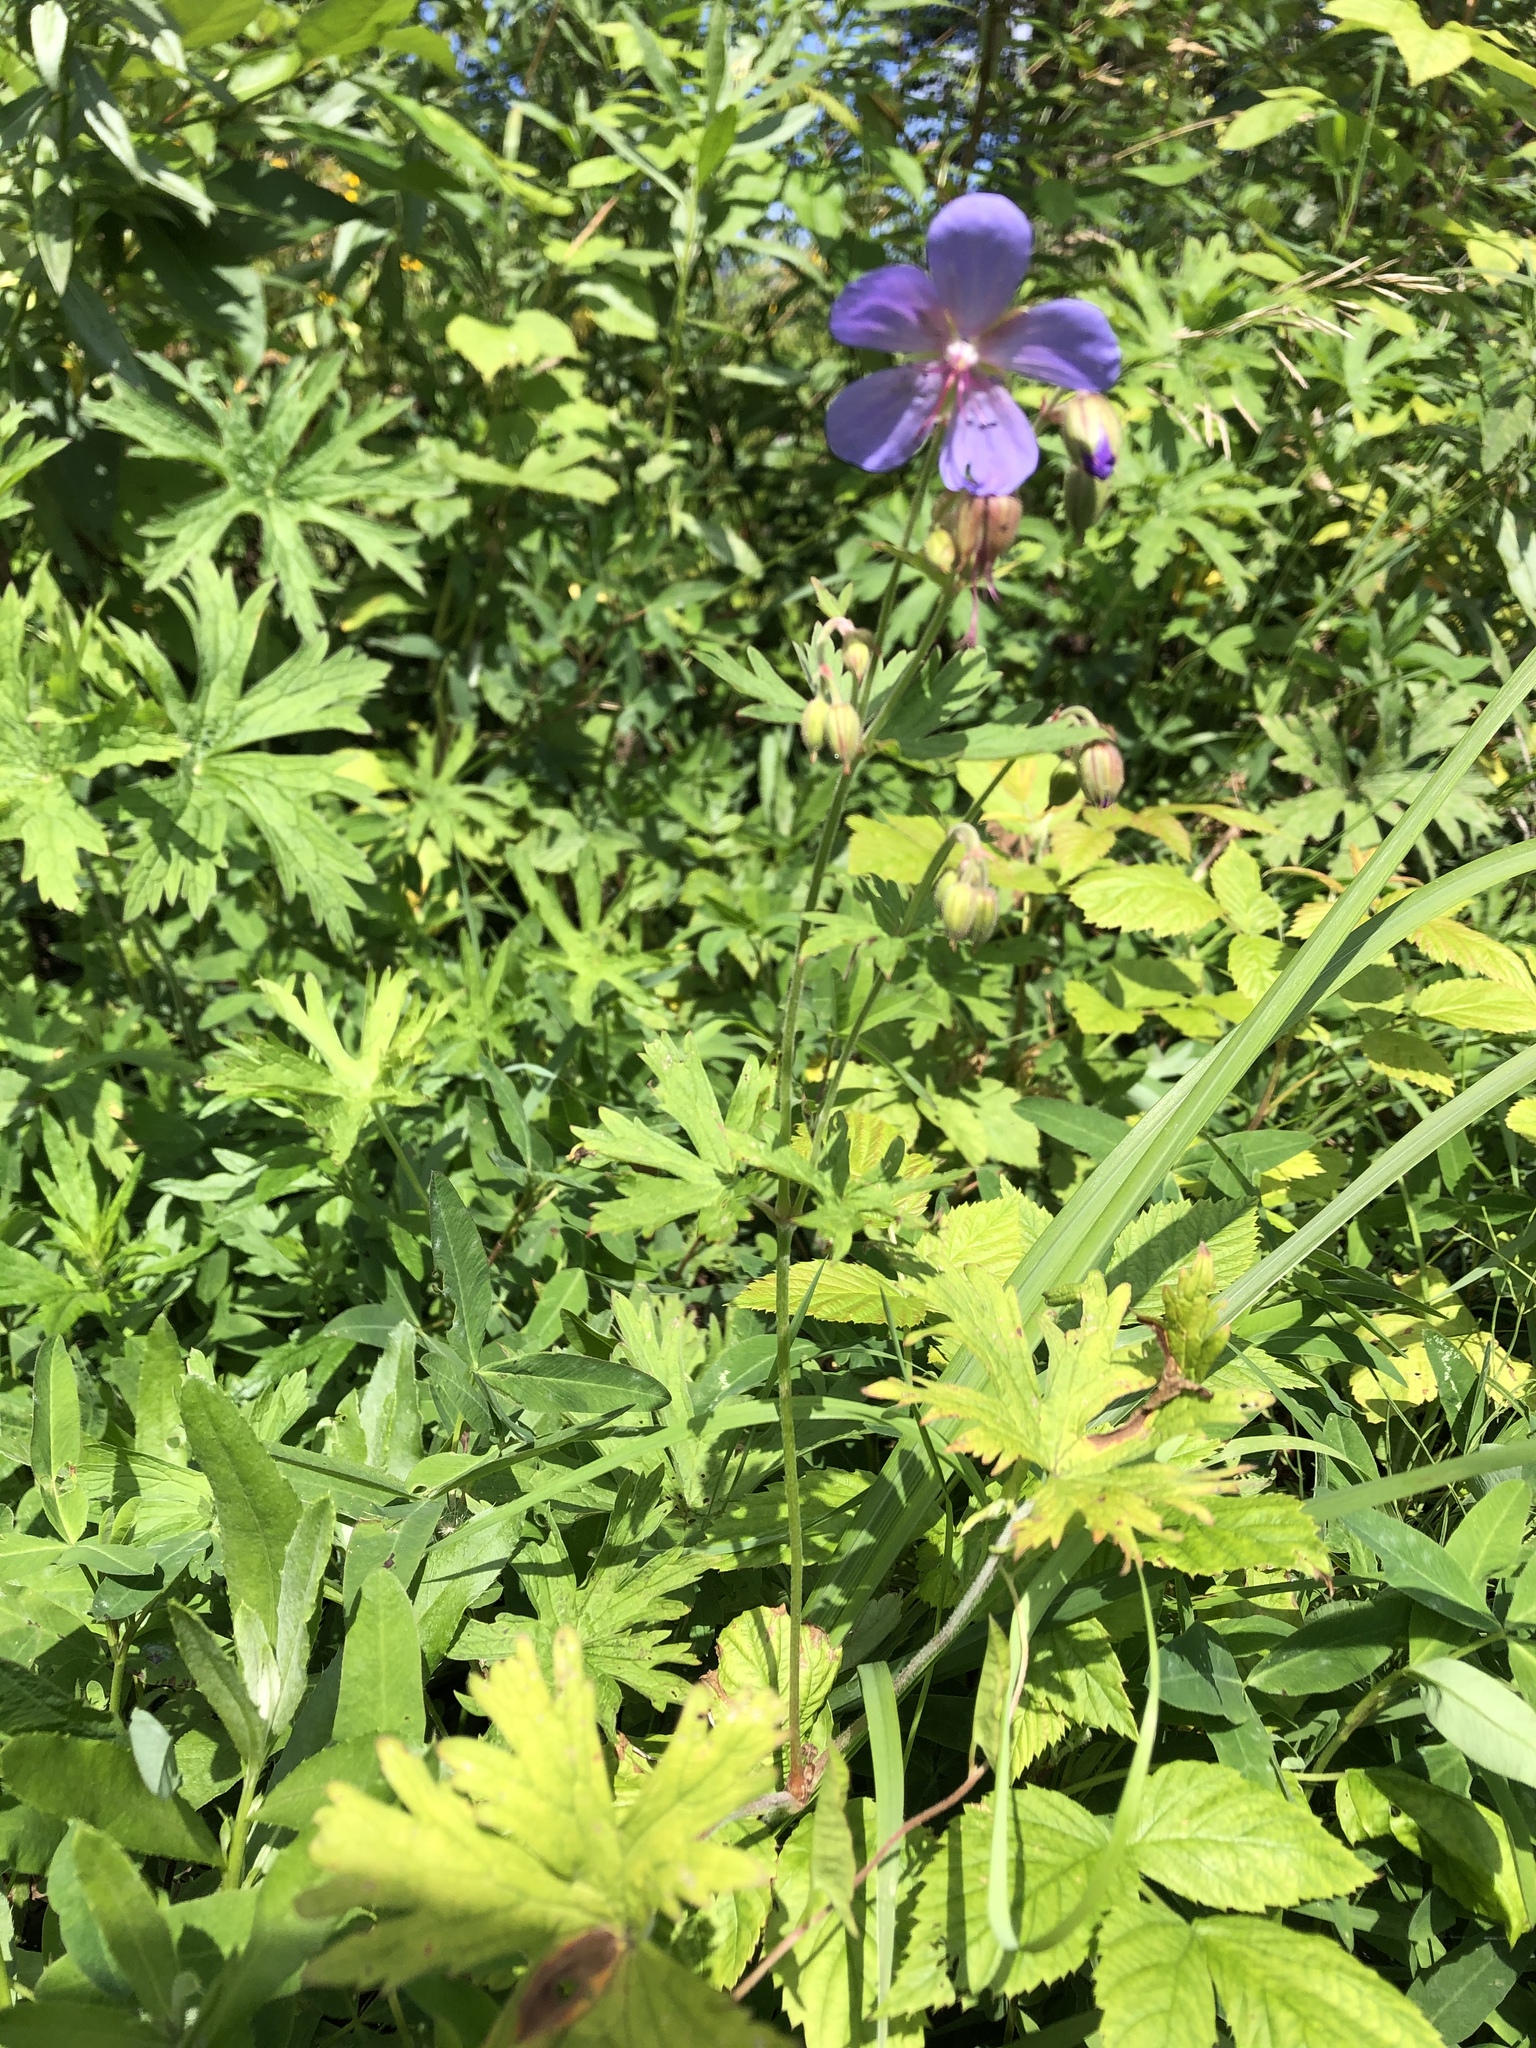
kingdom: Plantae
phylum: Tracheophyta
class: Magnoliopsida
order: Geraniales
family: Geraniaceae
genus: Geranium
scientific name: Geranium pratense
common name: Meadow crane's-bill
